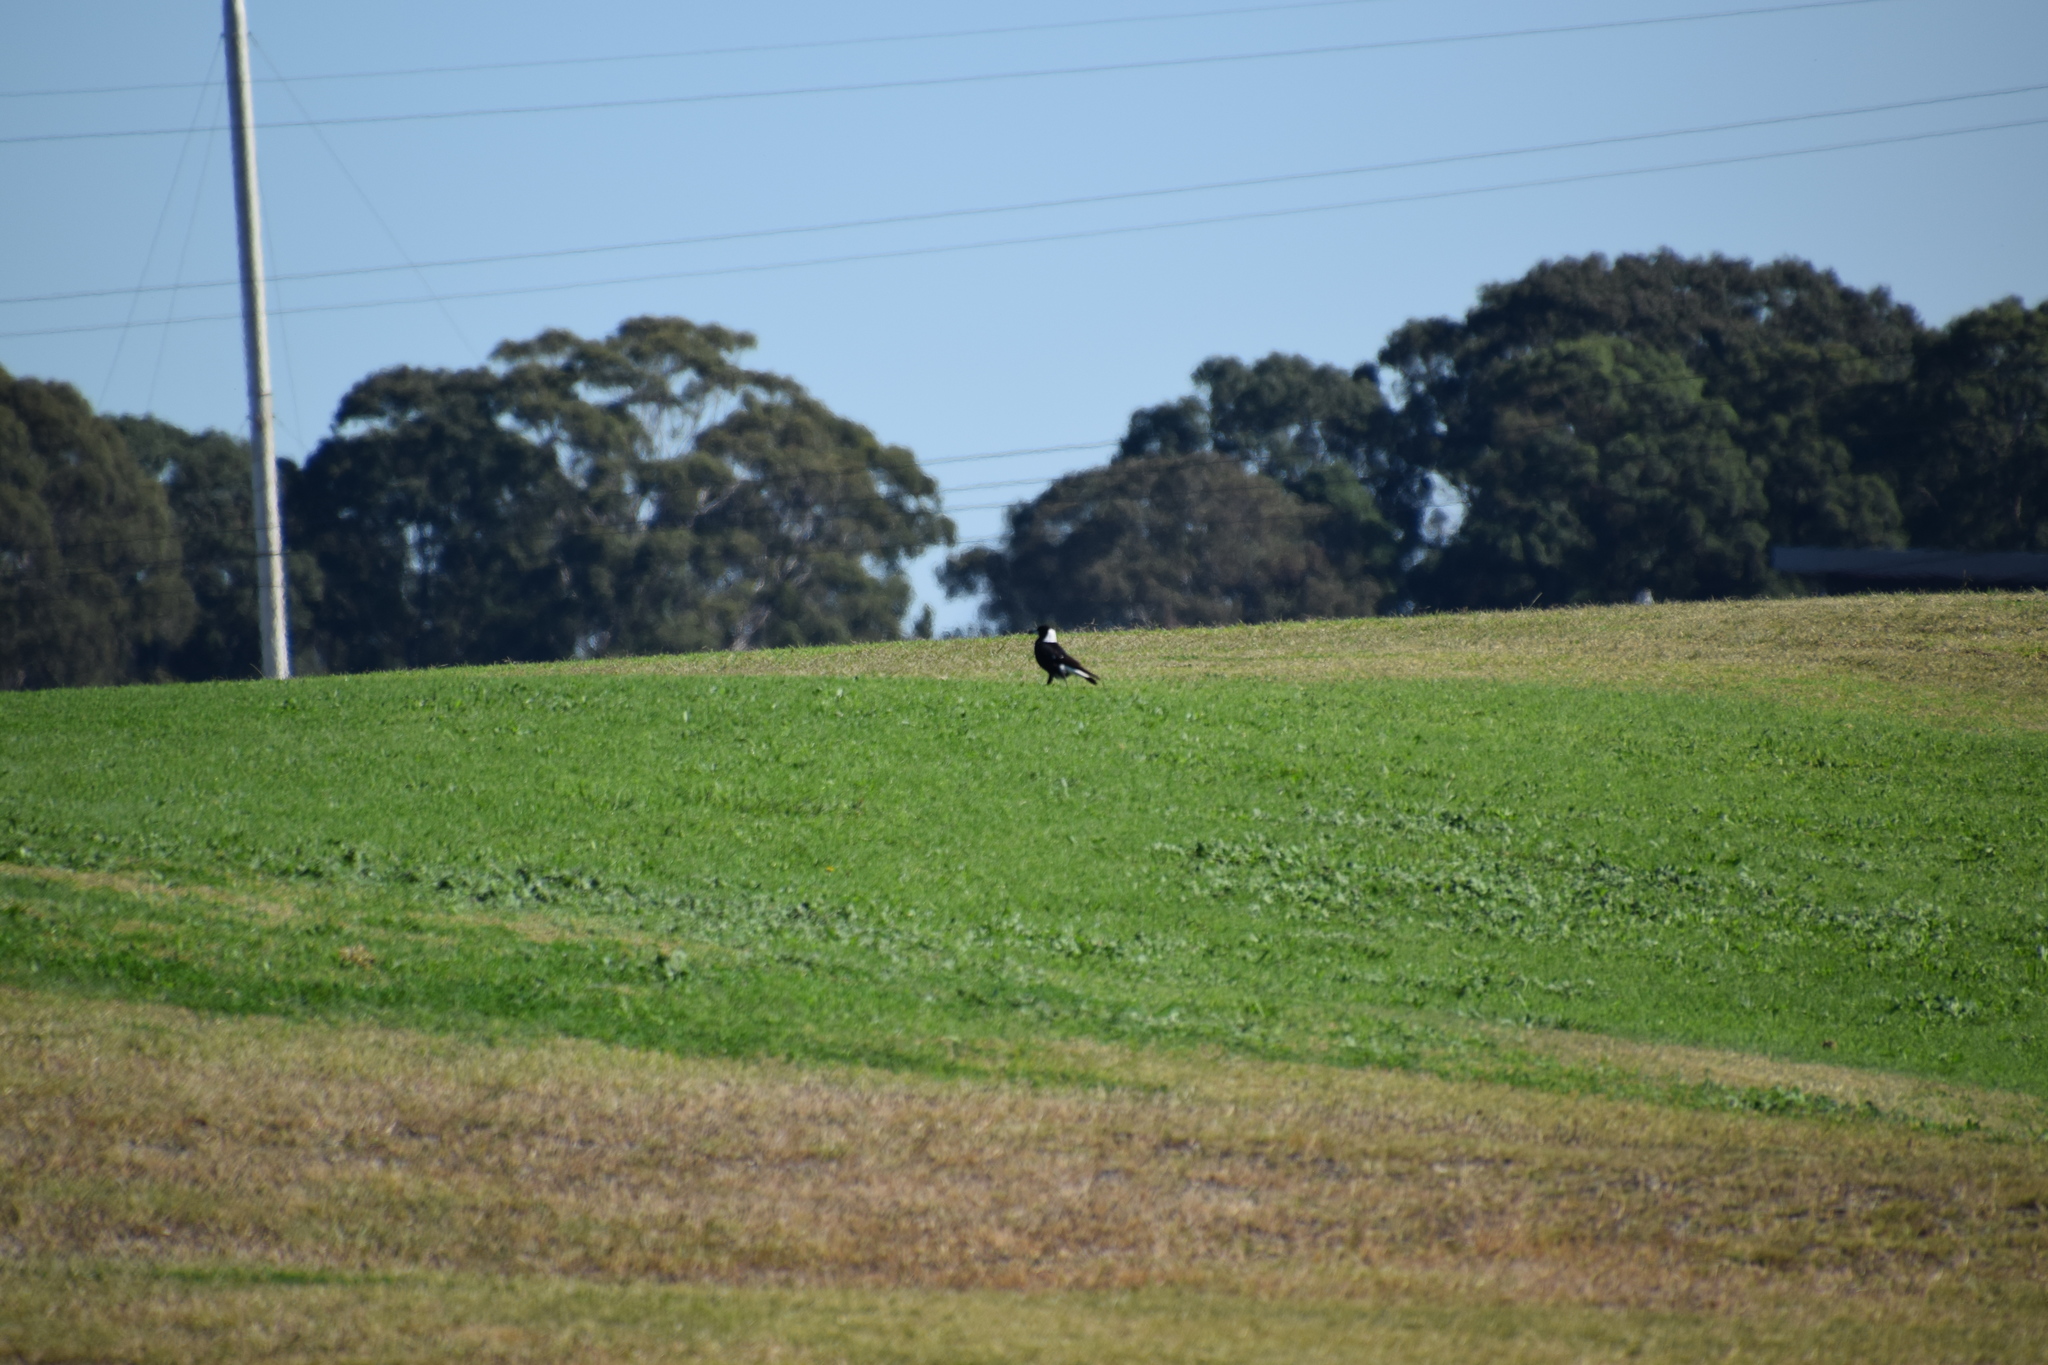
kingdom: Animalia
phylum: Chordata
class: Aves
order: Passeriformes
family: Cracticidae
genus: Gymnorhina
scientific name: Gymnorhina tibicen
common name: Australian magpie
